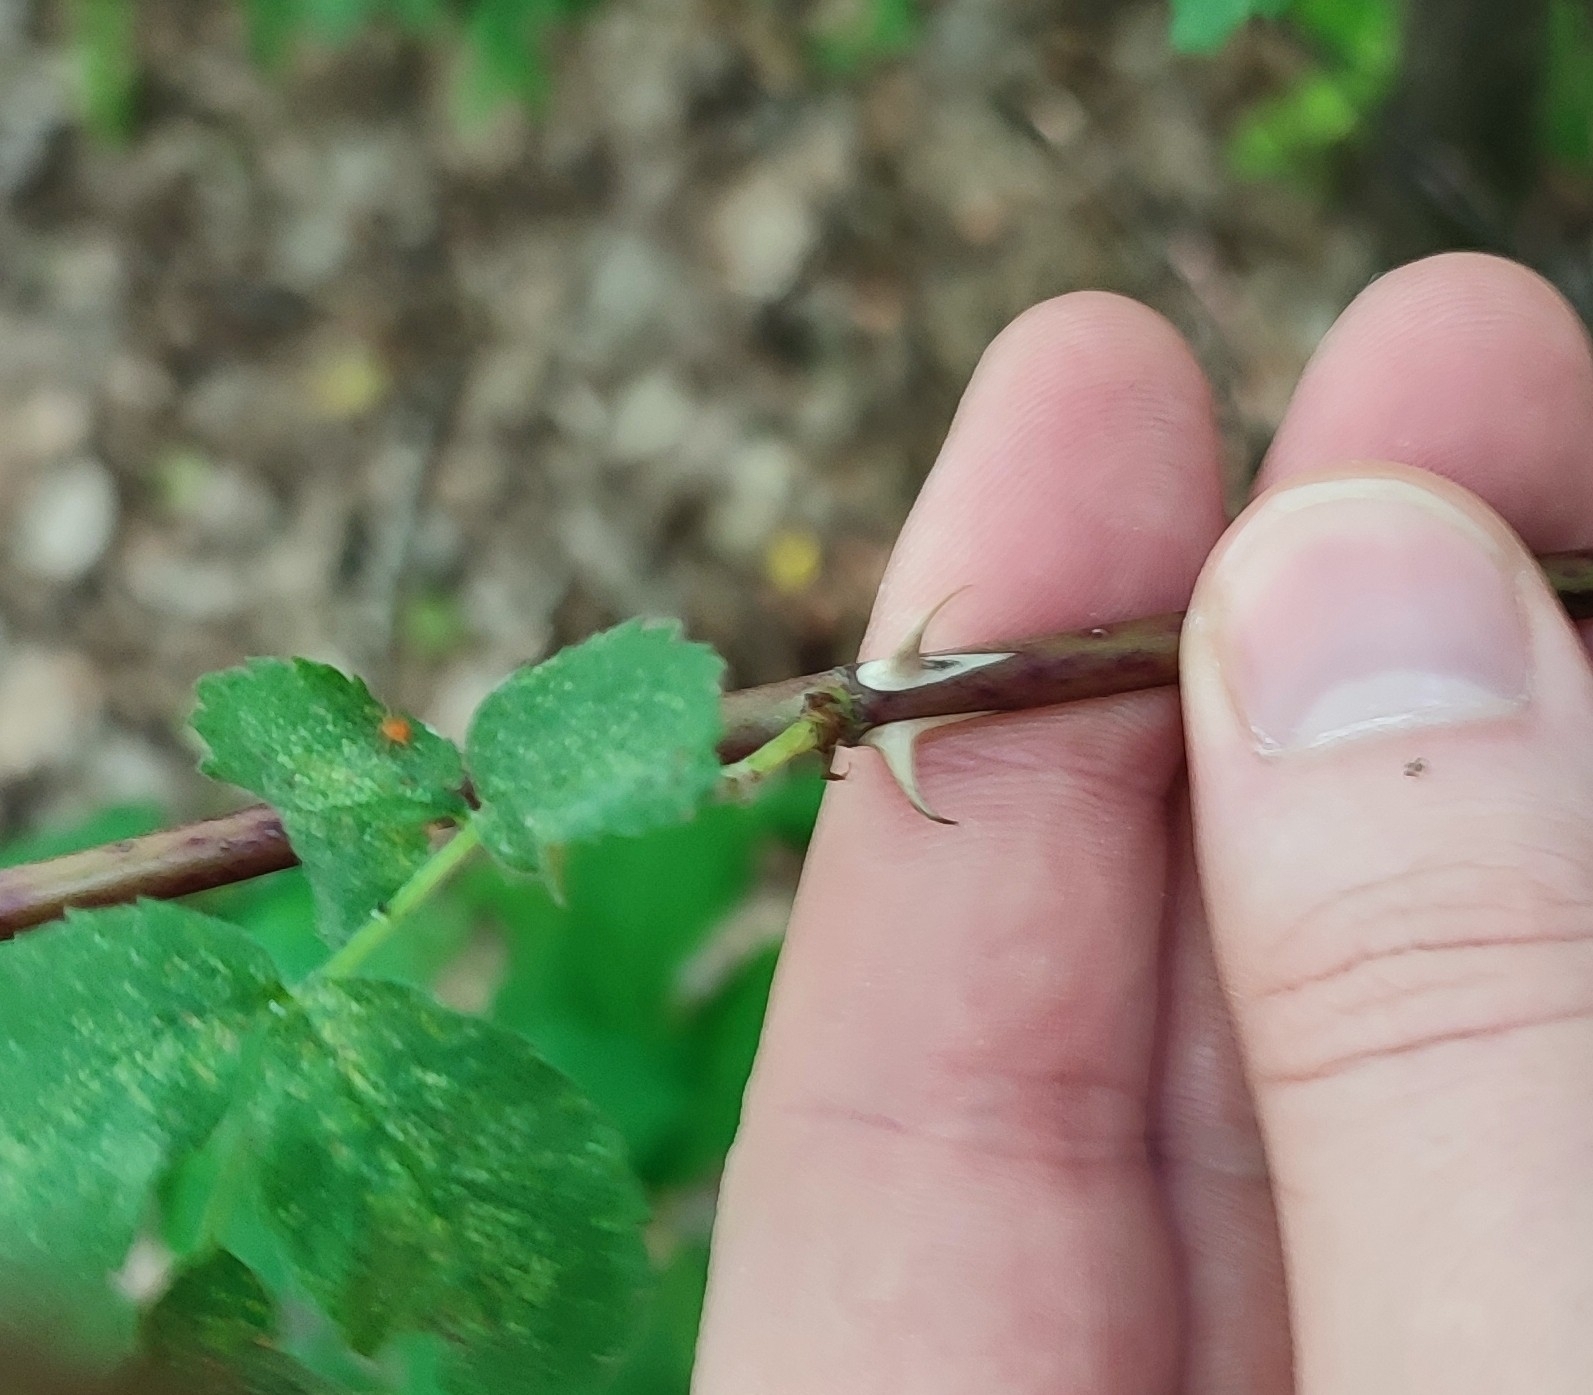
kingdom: Plantae
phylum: Tracheophyta
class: Magnoliopsida
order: Rosales
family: Rosaceae
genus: Rosa
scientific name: Rosa majalis
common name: Cinnamon rose
